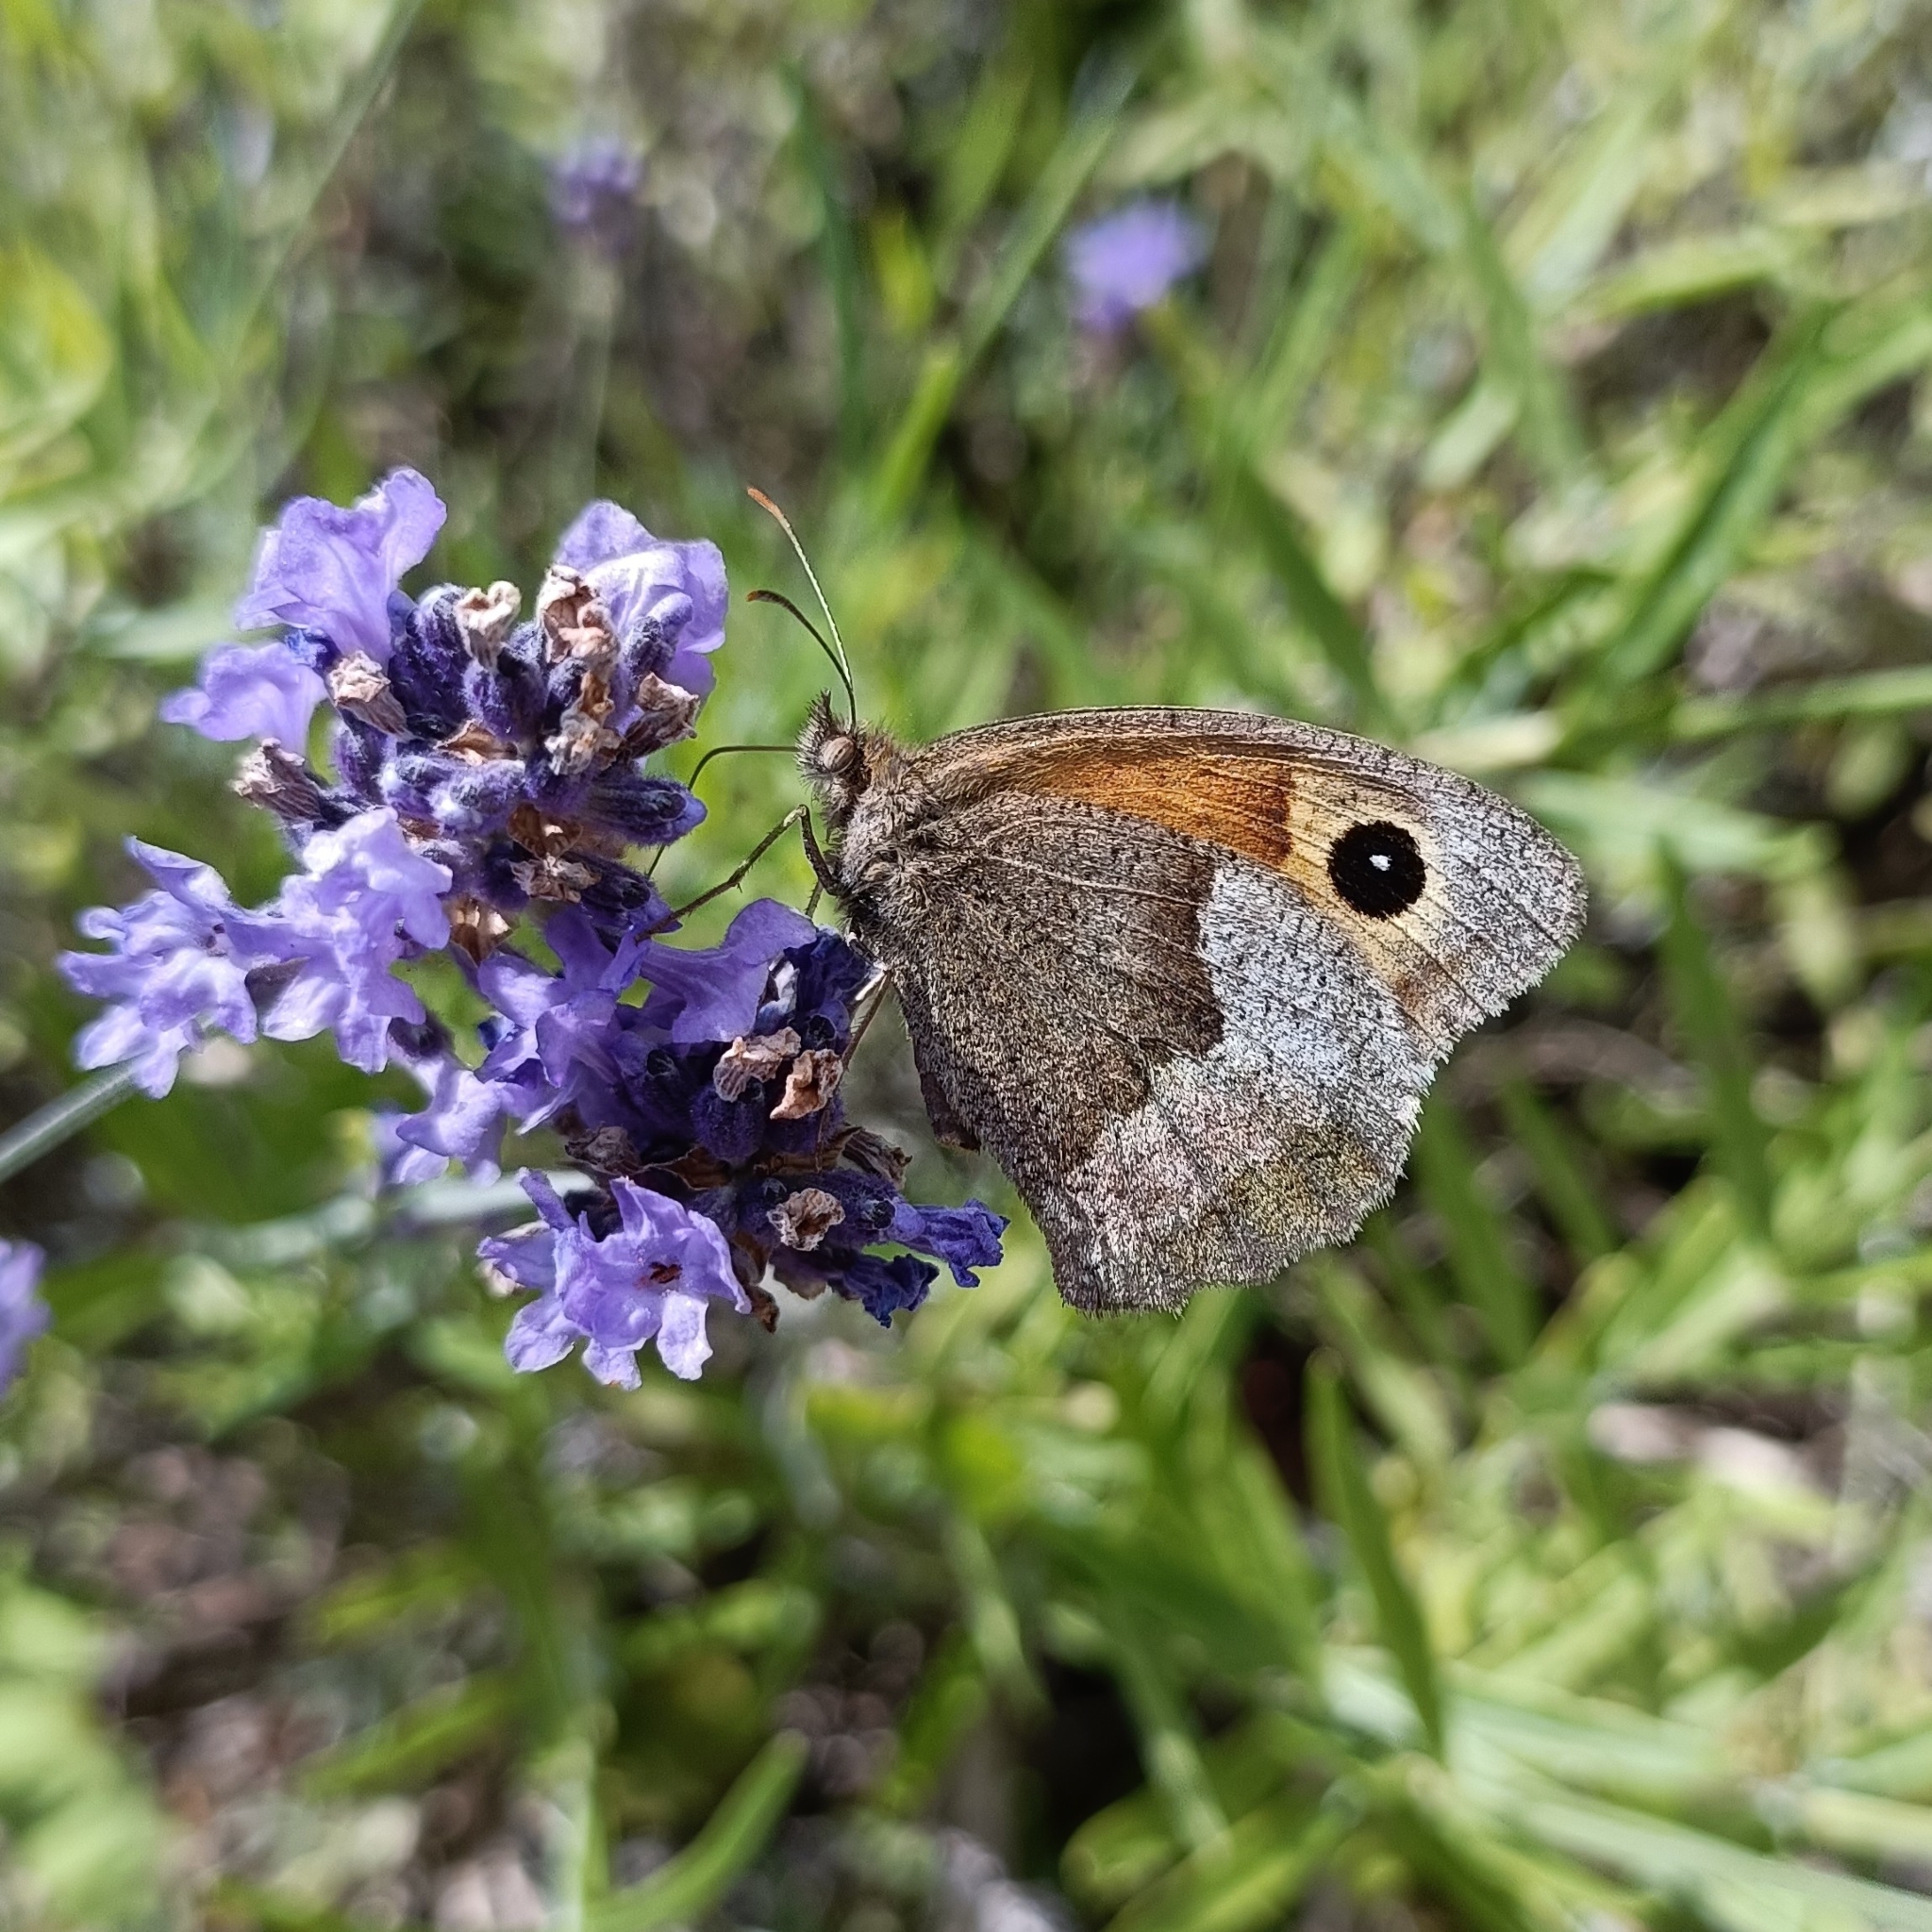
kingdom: Animalia
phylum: Arthropoda
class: Insecta
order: Lepidoptera
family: Nymphalidae
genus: Maniola
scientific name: Maniola jurtina
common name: Meadow brown
